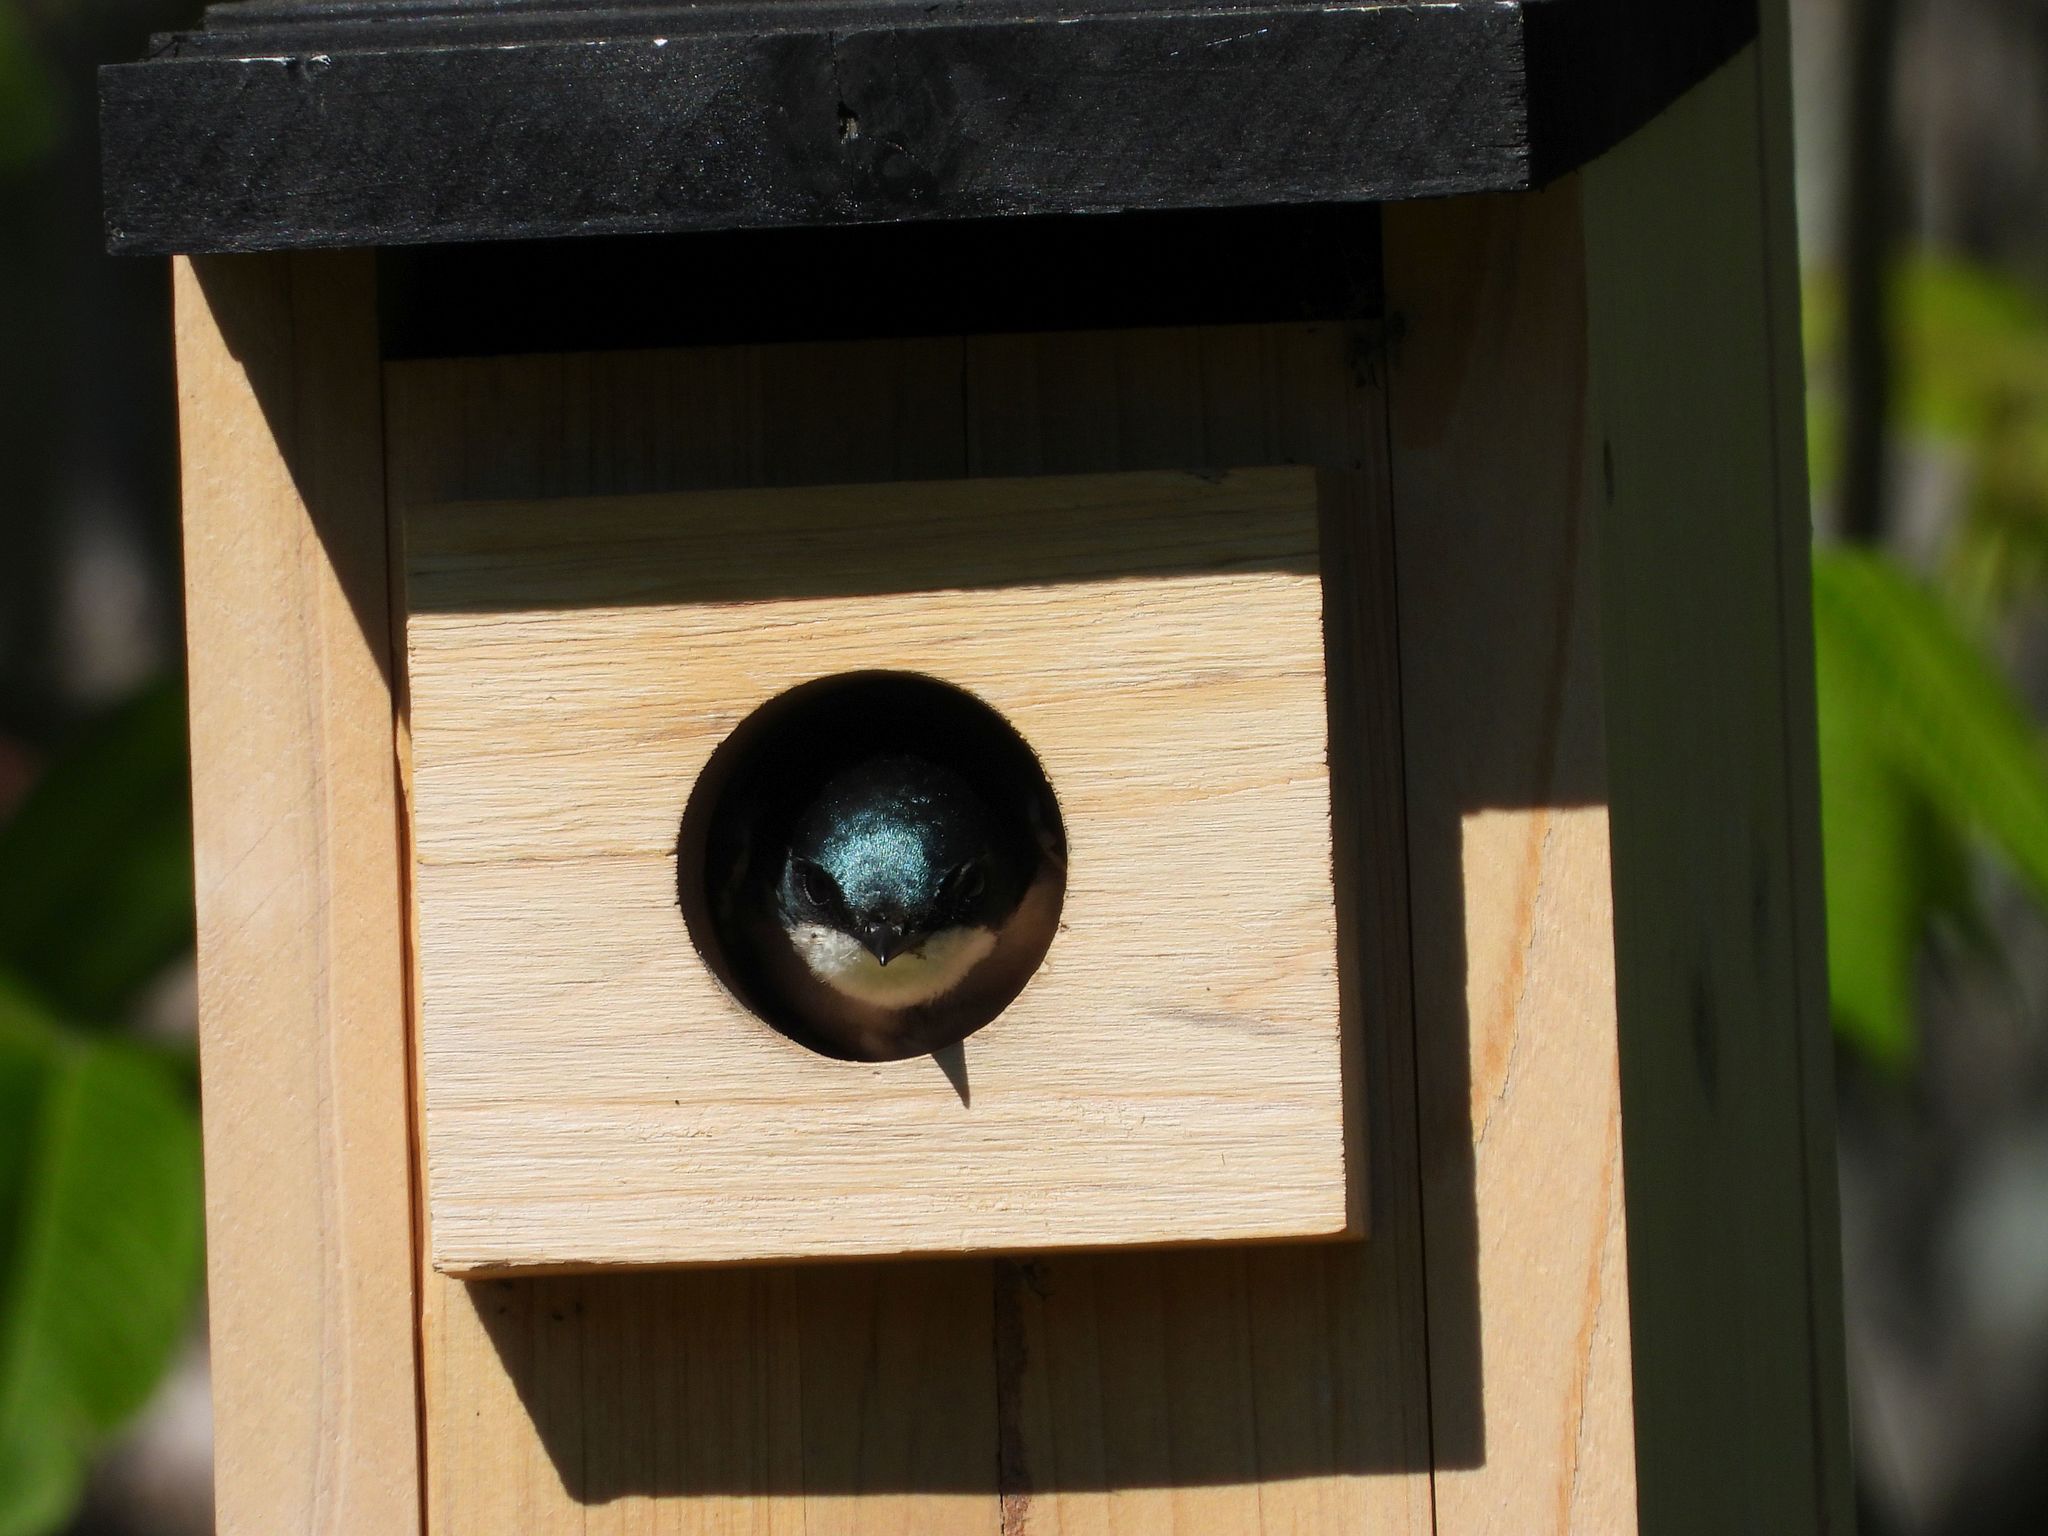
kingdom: Animalia
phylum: Chordata
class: Aves
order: Passeriformes
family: Hirundinidae
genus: Tachycineta
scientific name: Tachycineta bicolor
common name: Tree swallow
